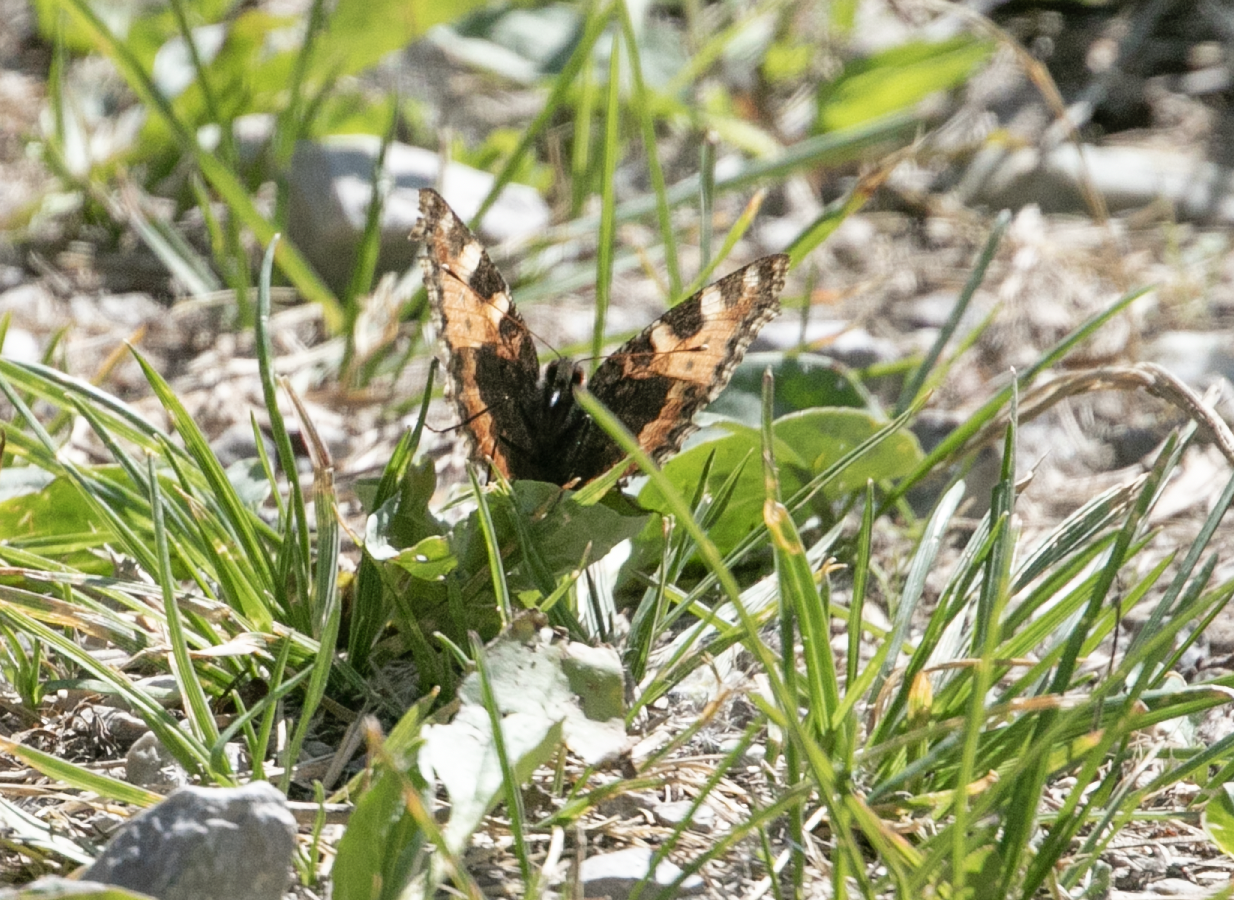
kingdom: Animalia
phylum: Arthropoda
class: Insecta
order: Lepidoptera
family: Nymphalidae
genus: Aglais
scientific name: Aglais urticae
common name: Small tortoiseshell
